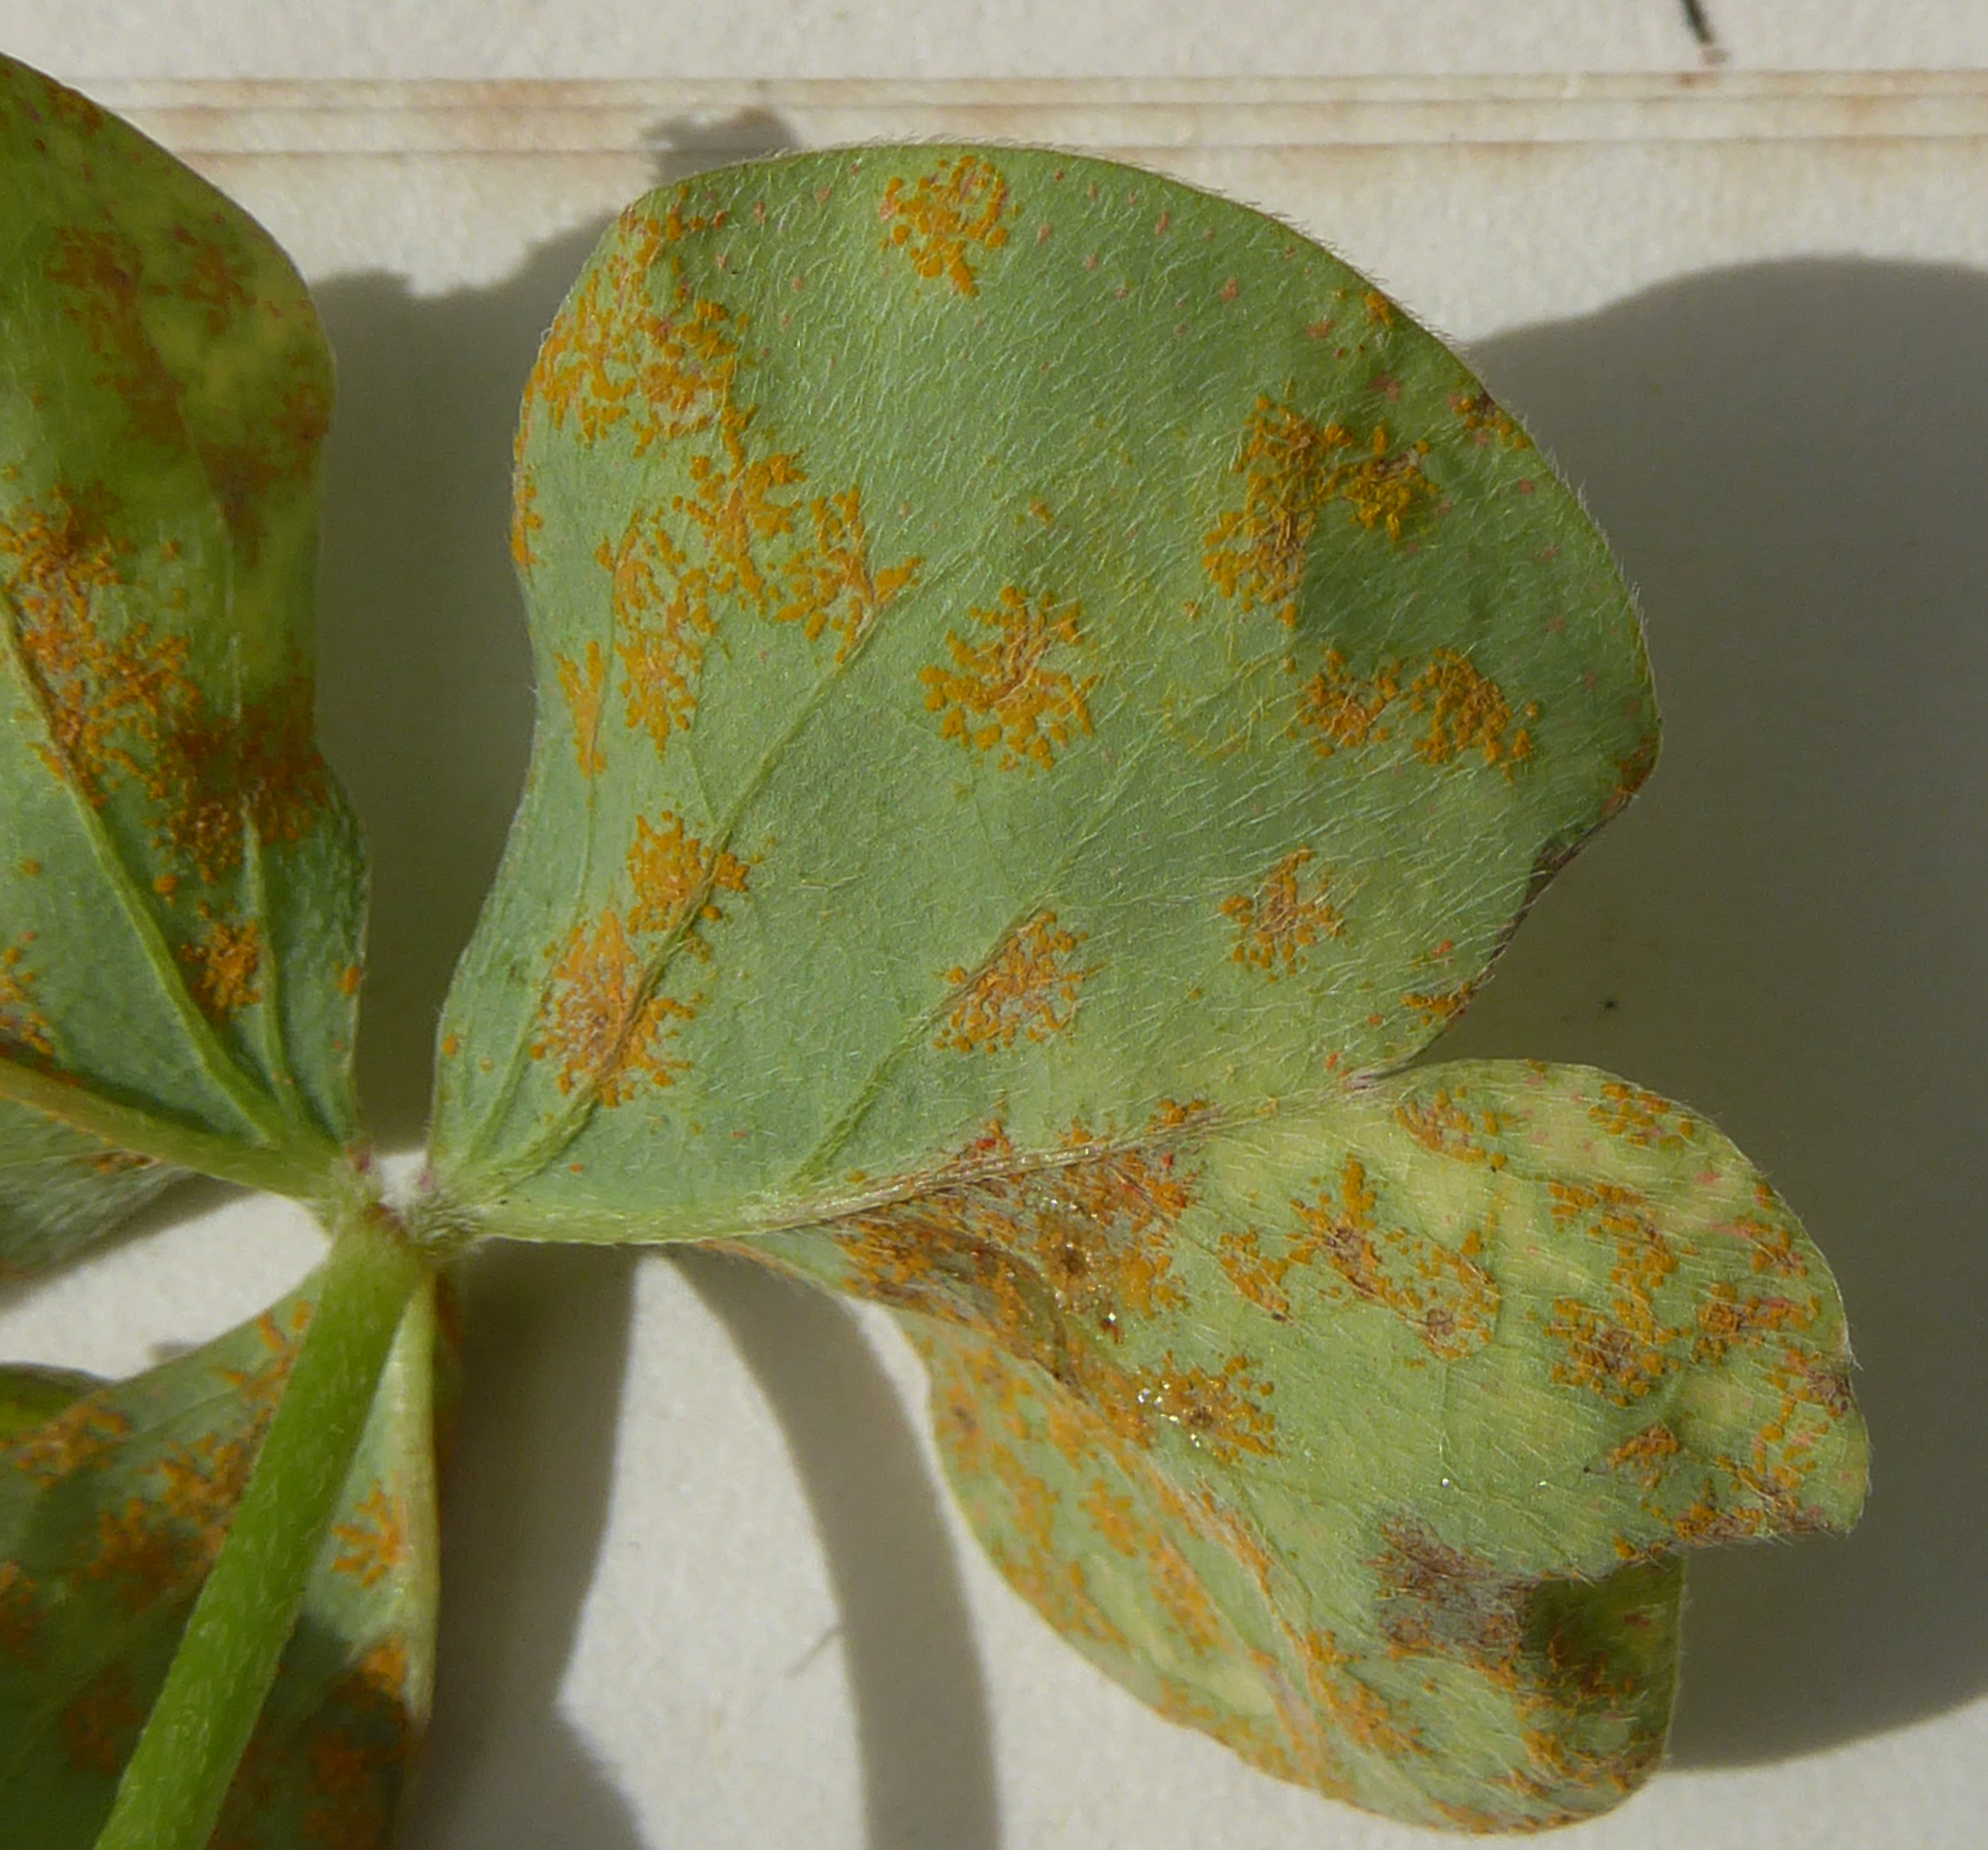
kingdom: Fungi
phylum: Basidiomycota
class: Pucciniomycetes
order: Pucciniales
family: Pucciniaceae
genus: Puccinia
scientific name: Puccinia oxalidis
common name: Oxalis rust
